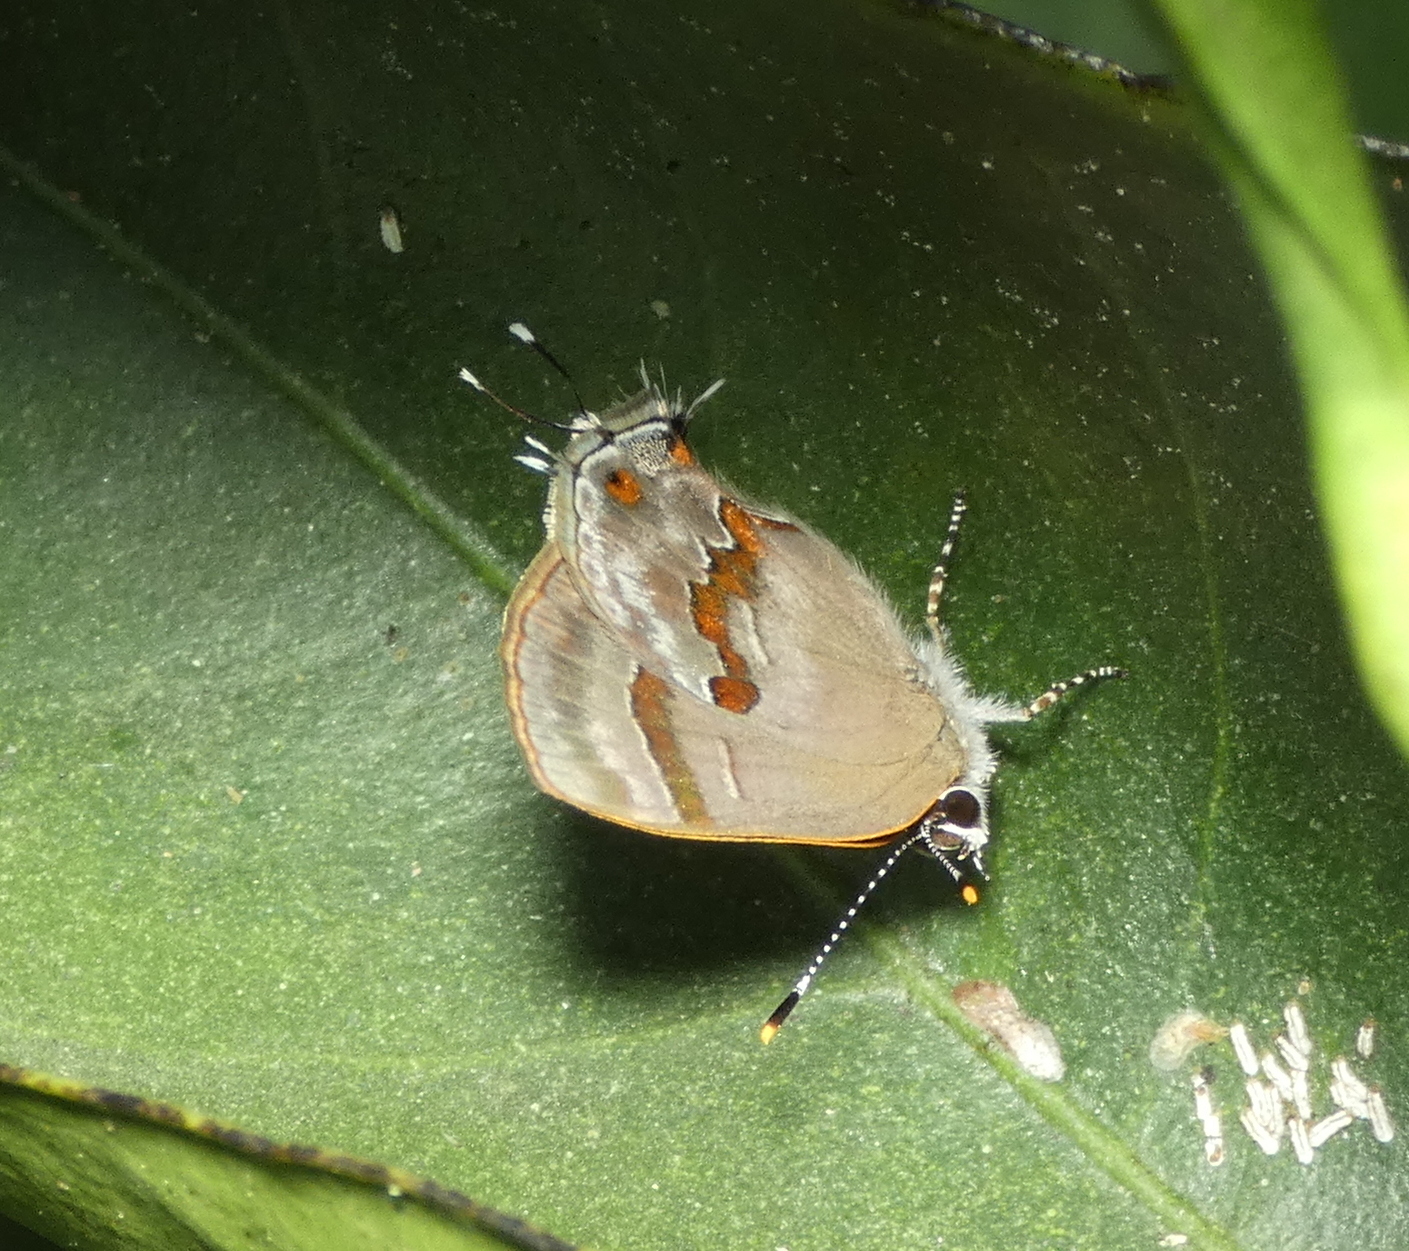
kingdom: Animalia
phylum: Arthropoda
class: Insecta
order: Lepidoptera
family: Lycaenidae
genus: Thecla
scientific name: Thecla ecbatana
